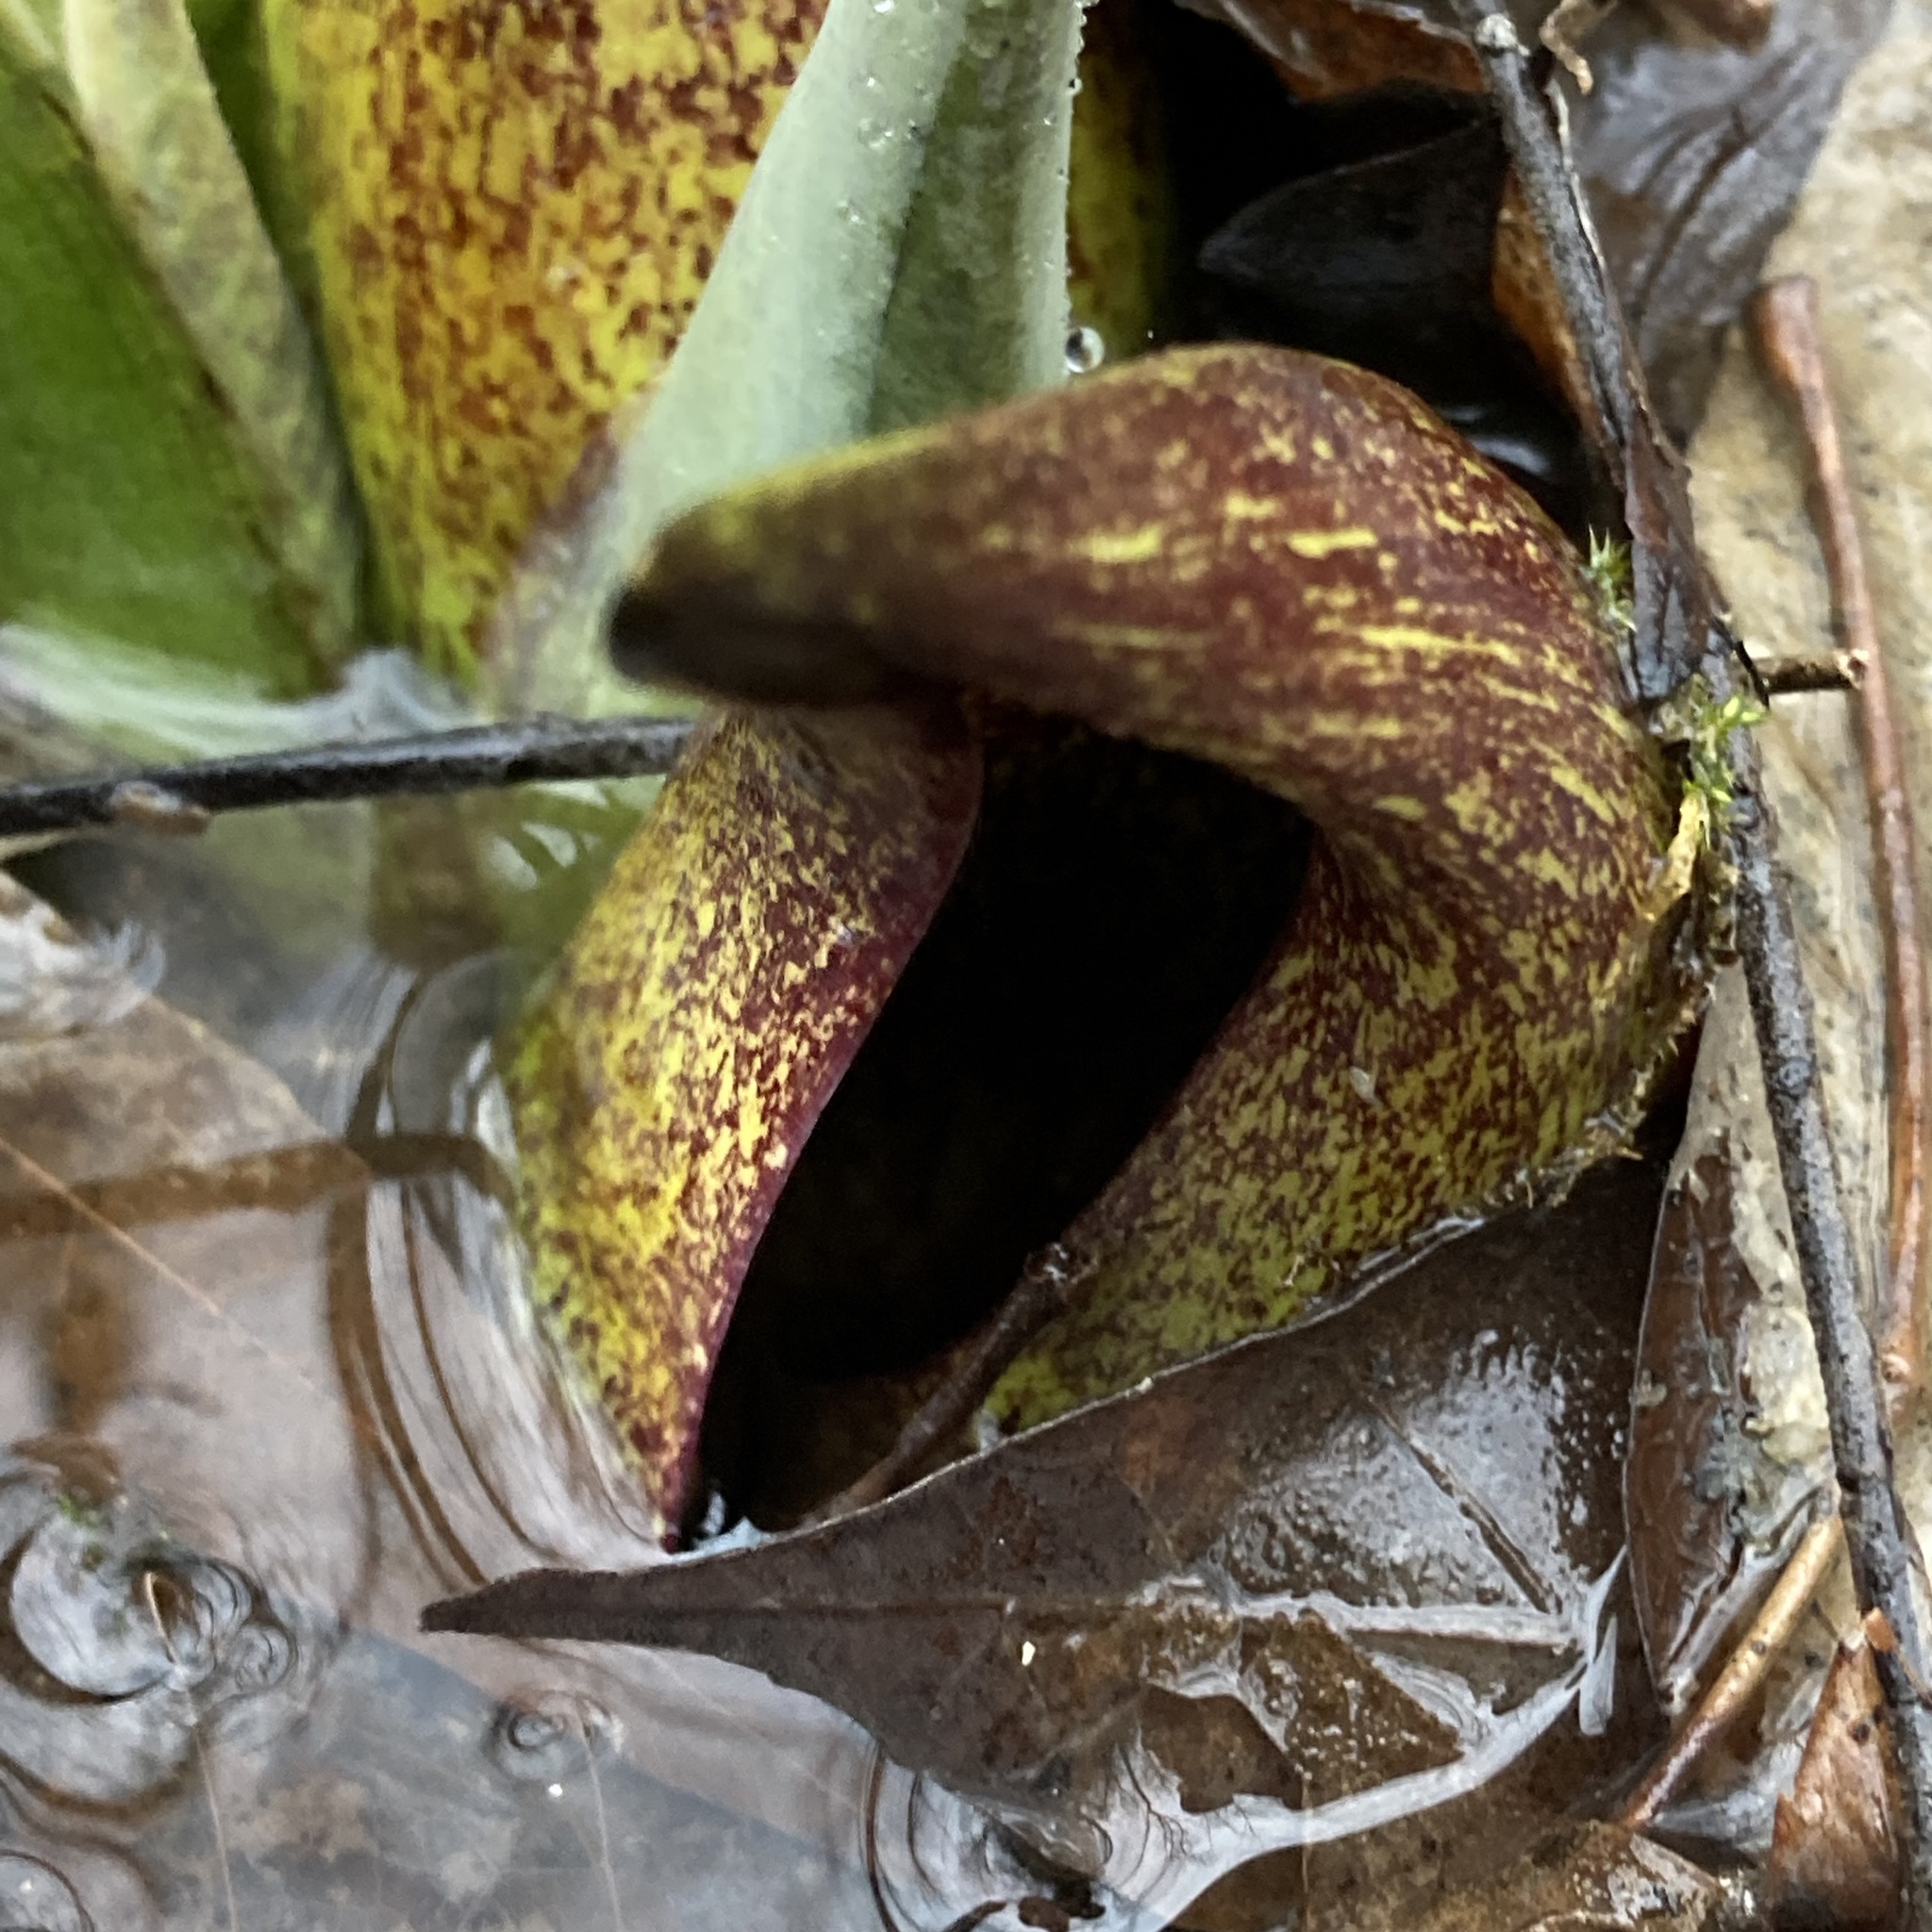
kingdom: Plantae
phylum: Tracheophyta
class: Liliopsida
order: Alismatales
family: Araceae
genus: Symplocarpus
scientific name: Symplocarpus foetidus
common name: Eastern skunk cabbage
